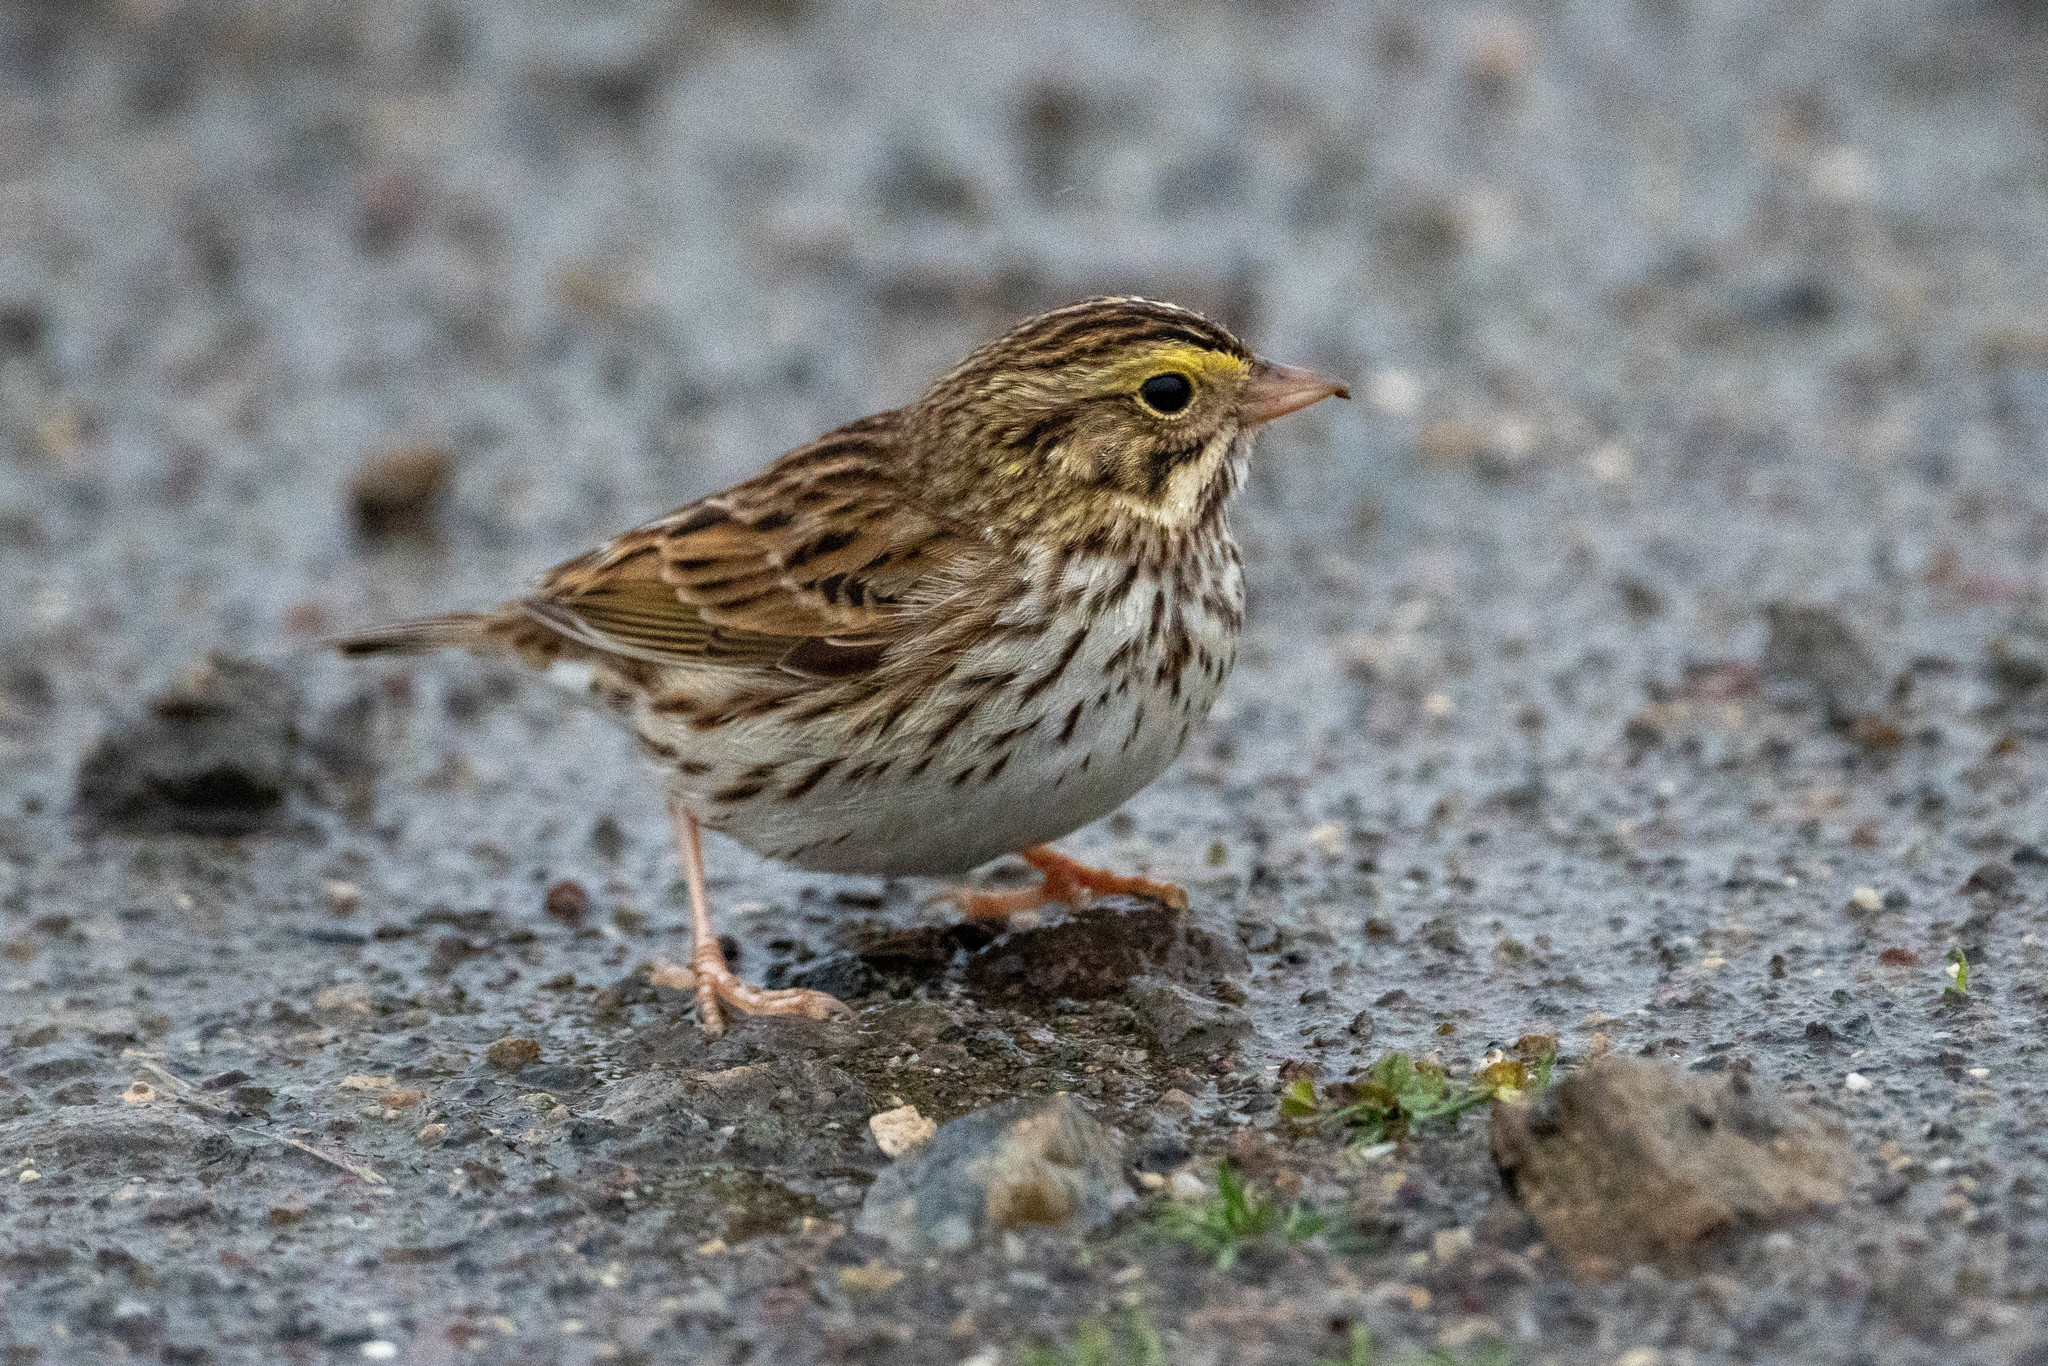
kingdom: Animalia
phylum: Chordata
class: Aves
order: Passeriformes
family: Passerellidae
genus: Passerculus
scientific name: Passerculus sandwichensis
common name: Savannah sparrow
